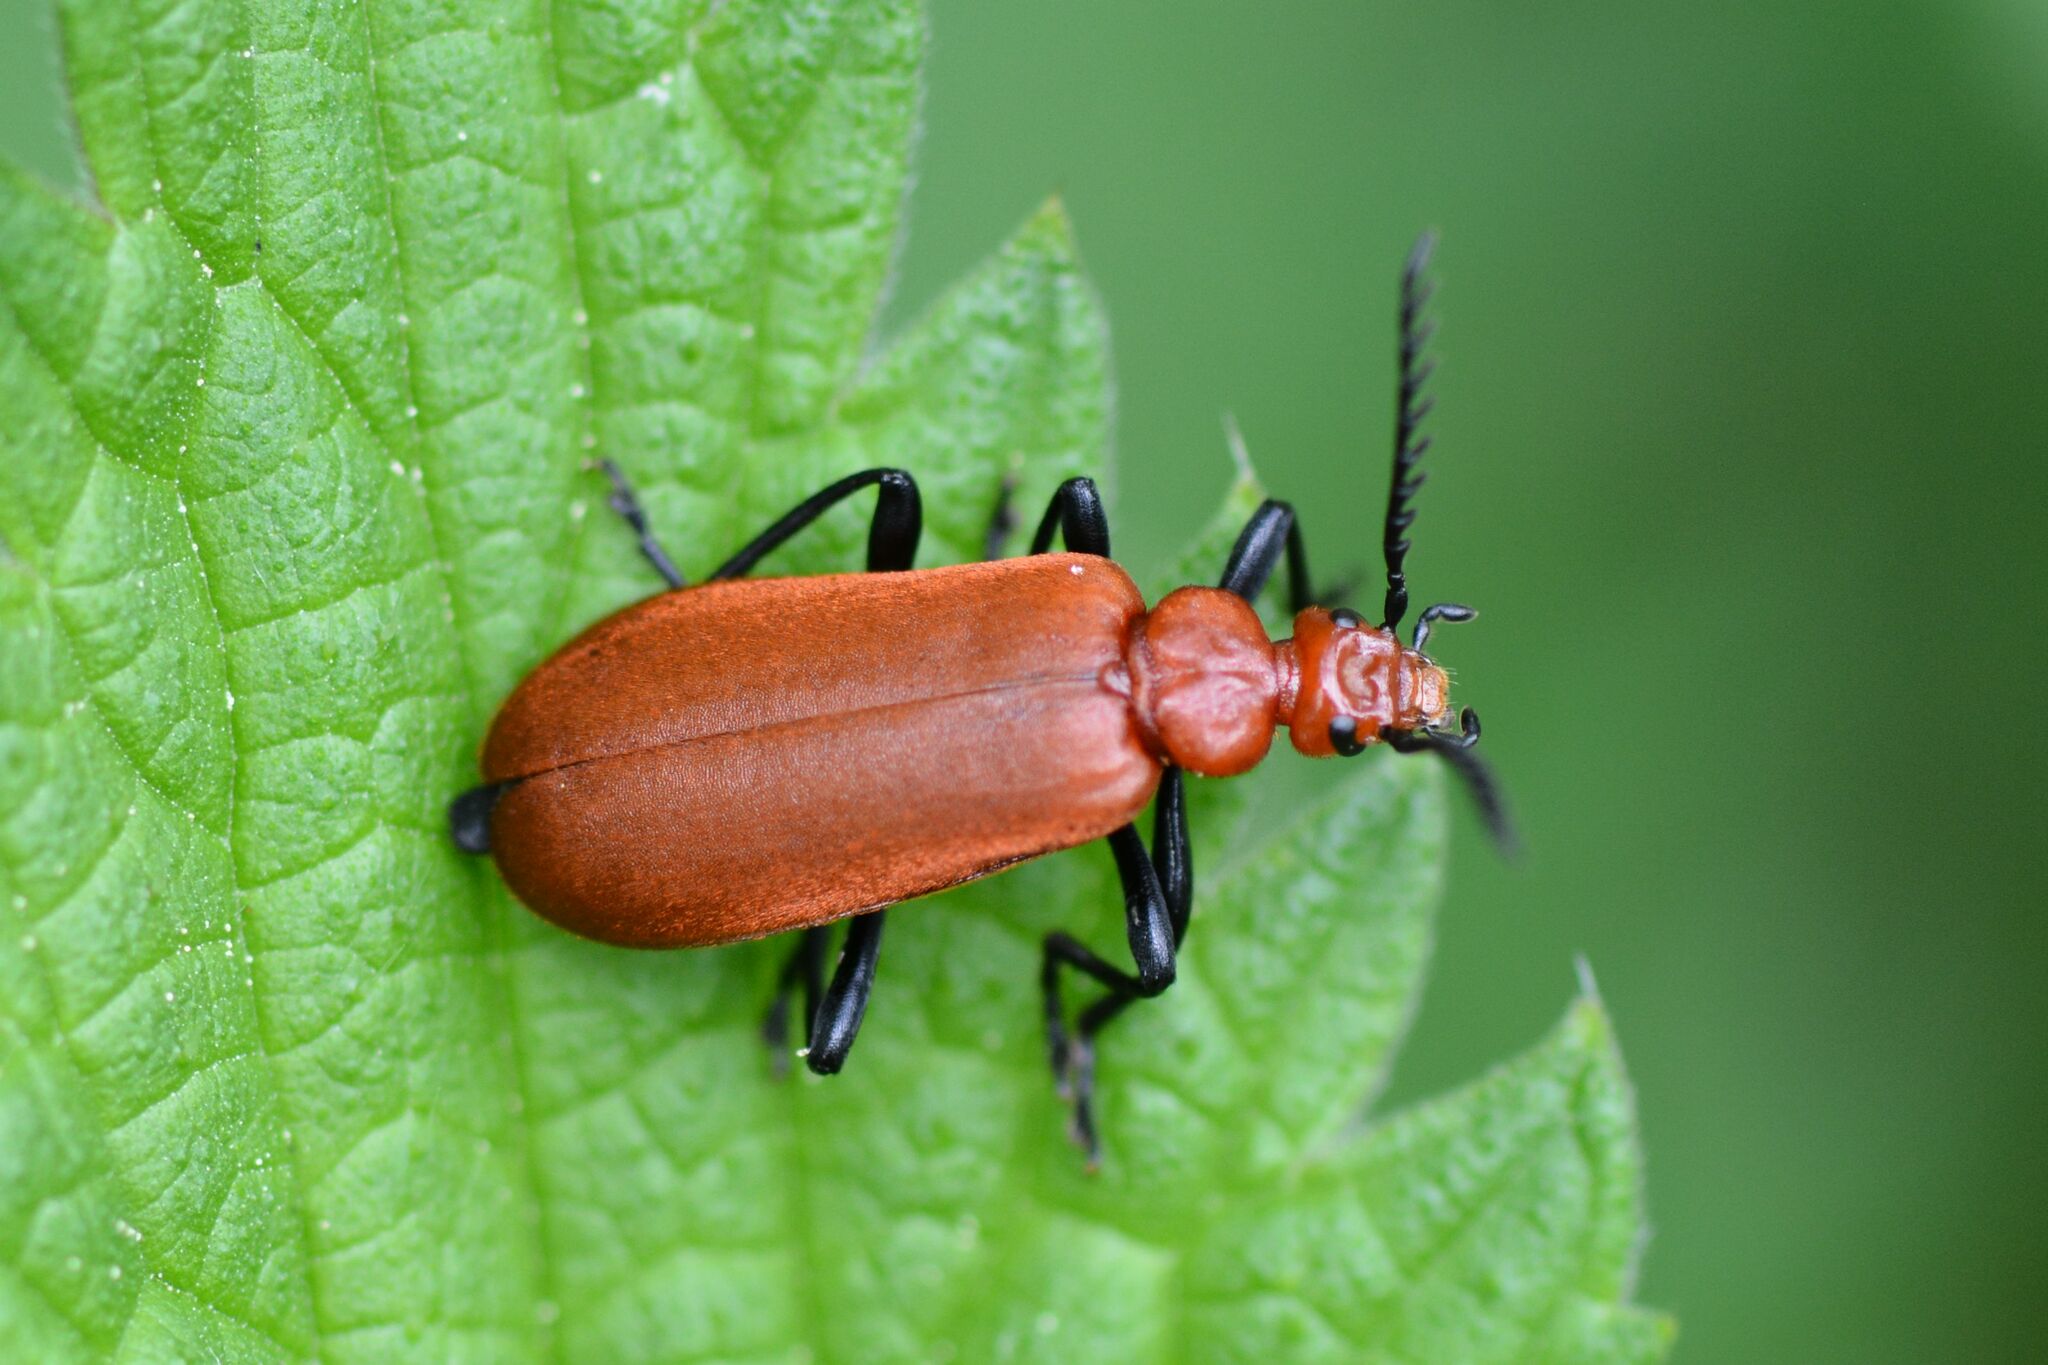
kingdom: Animalia
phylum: Arthropoda
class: Insecta
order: Coleoptera
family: Pyrochroidae
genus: Pyrochroa
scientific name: Pyrochroa serraticornis
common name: Red-headed cardinal beetle
